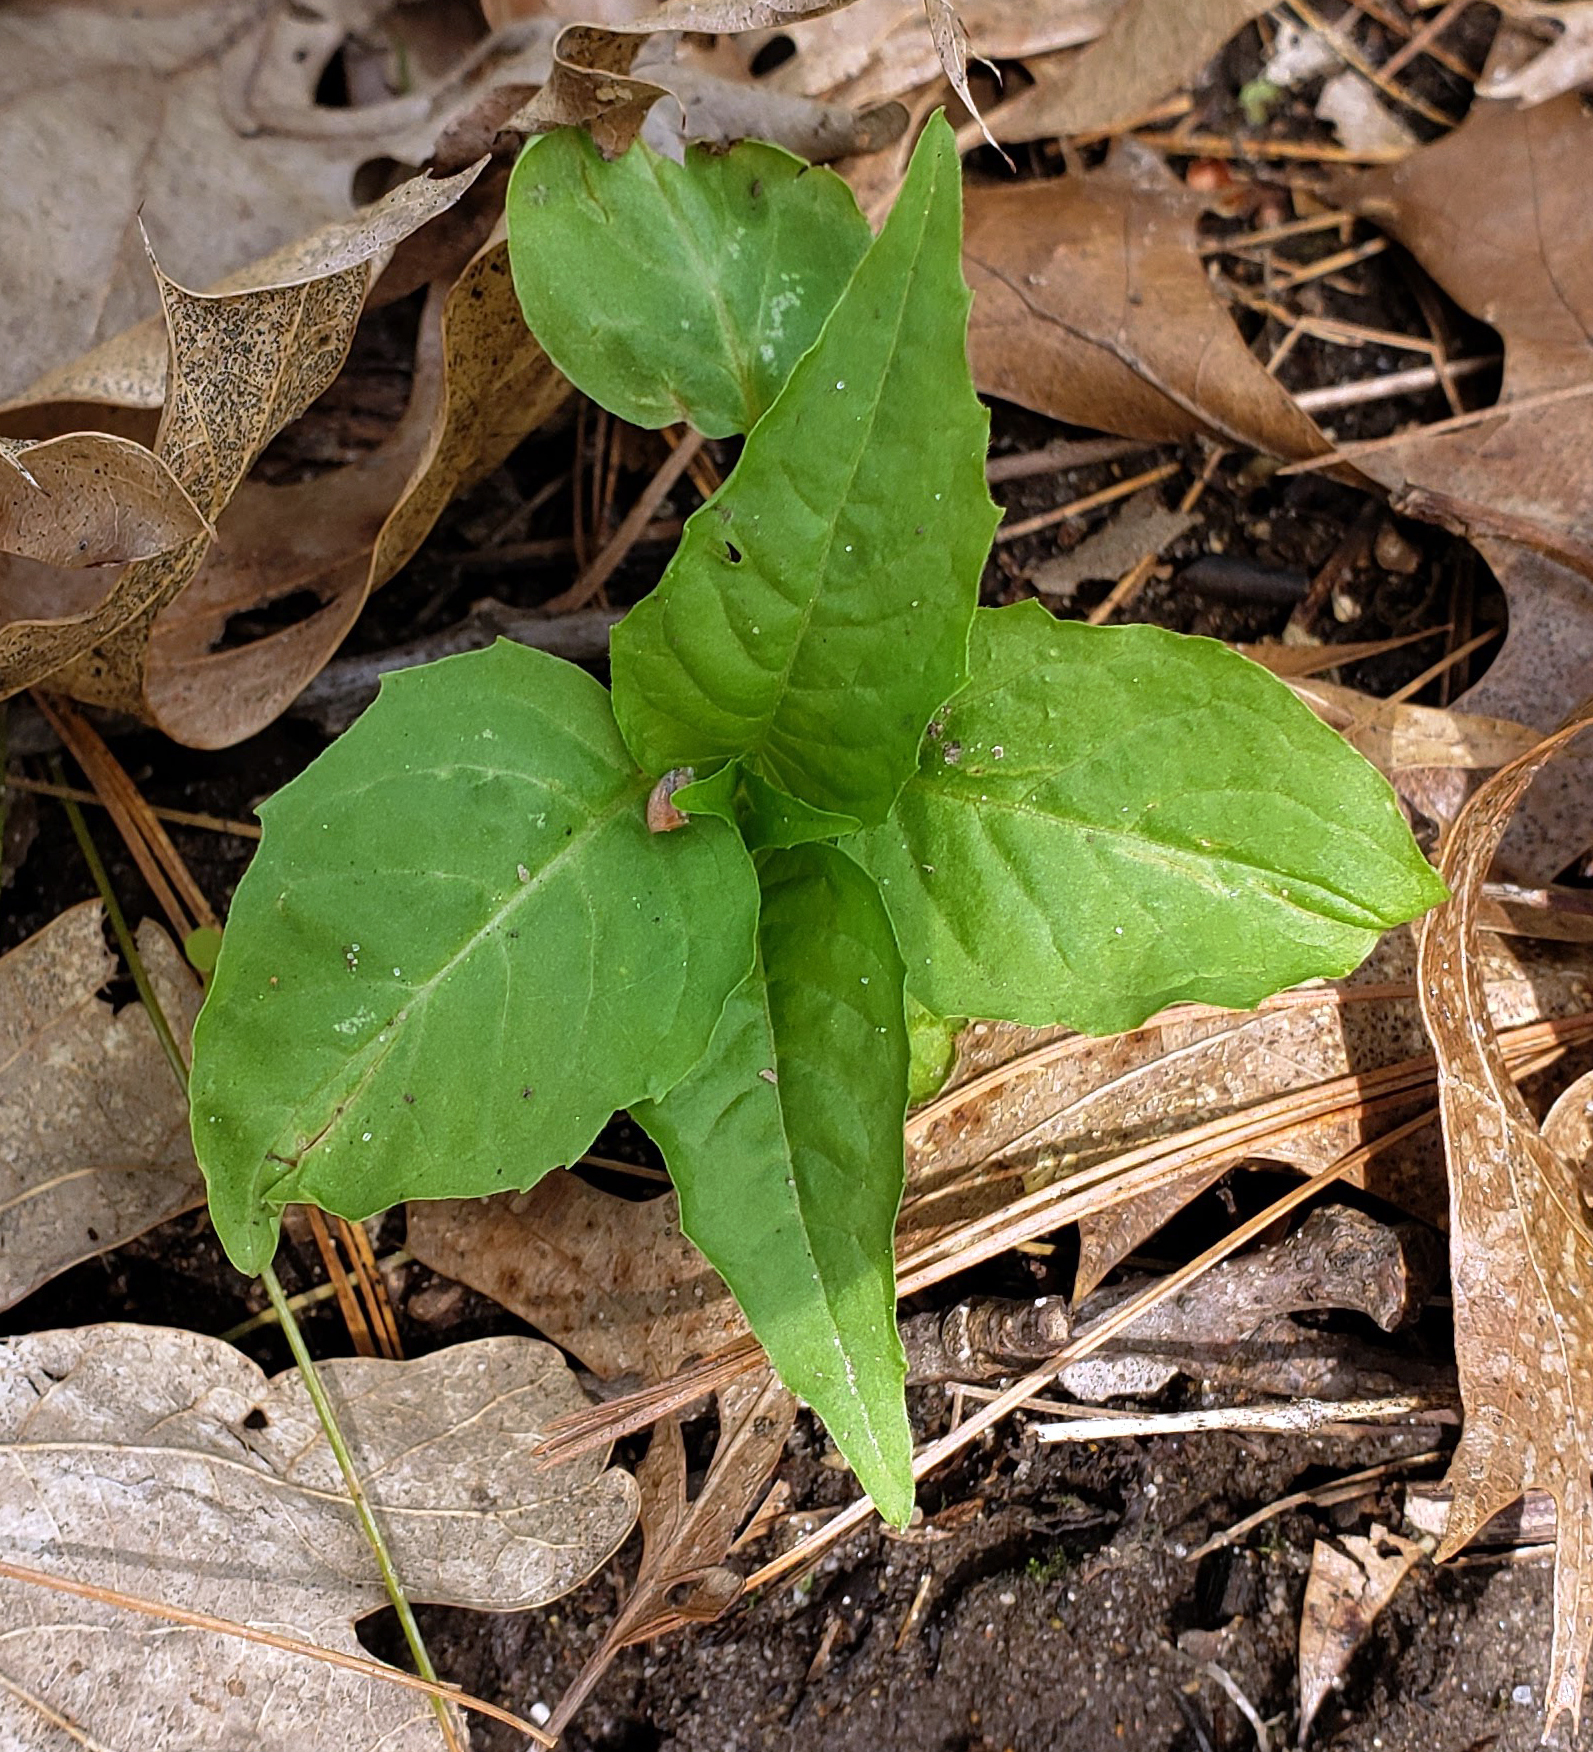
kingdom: Plantae
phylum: Tracheophyta
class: Magnoliopsida
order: Myrtales
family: Onagraceae
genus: Circaea
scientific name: Circaea canadensis
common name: Broad-leaved enchanter's nightshade
